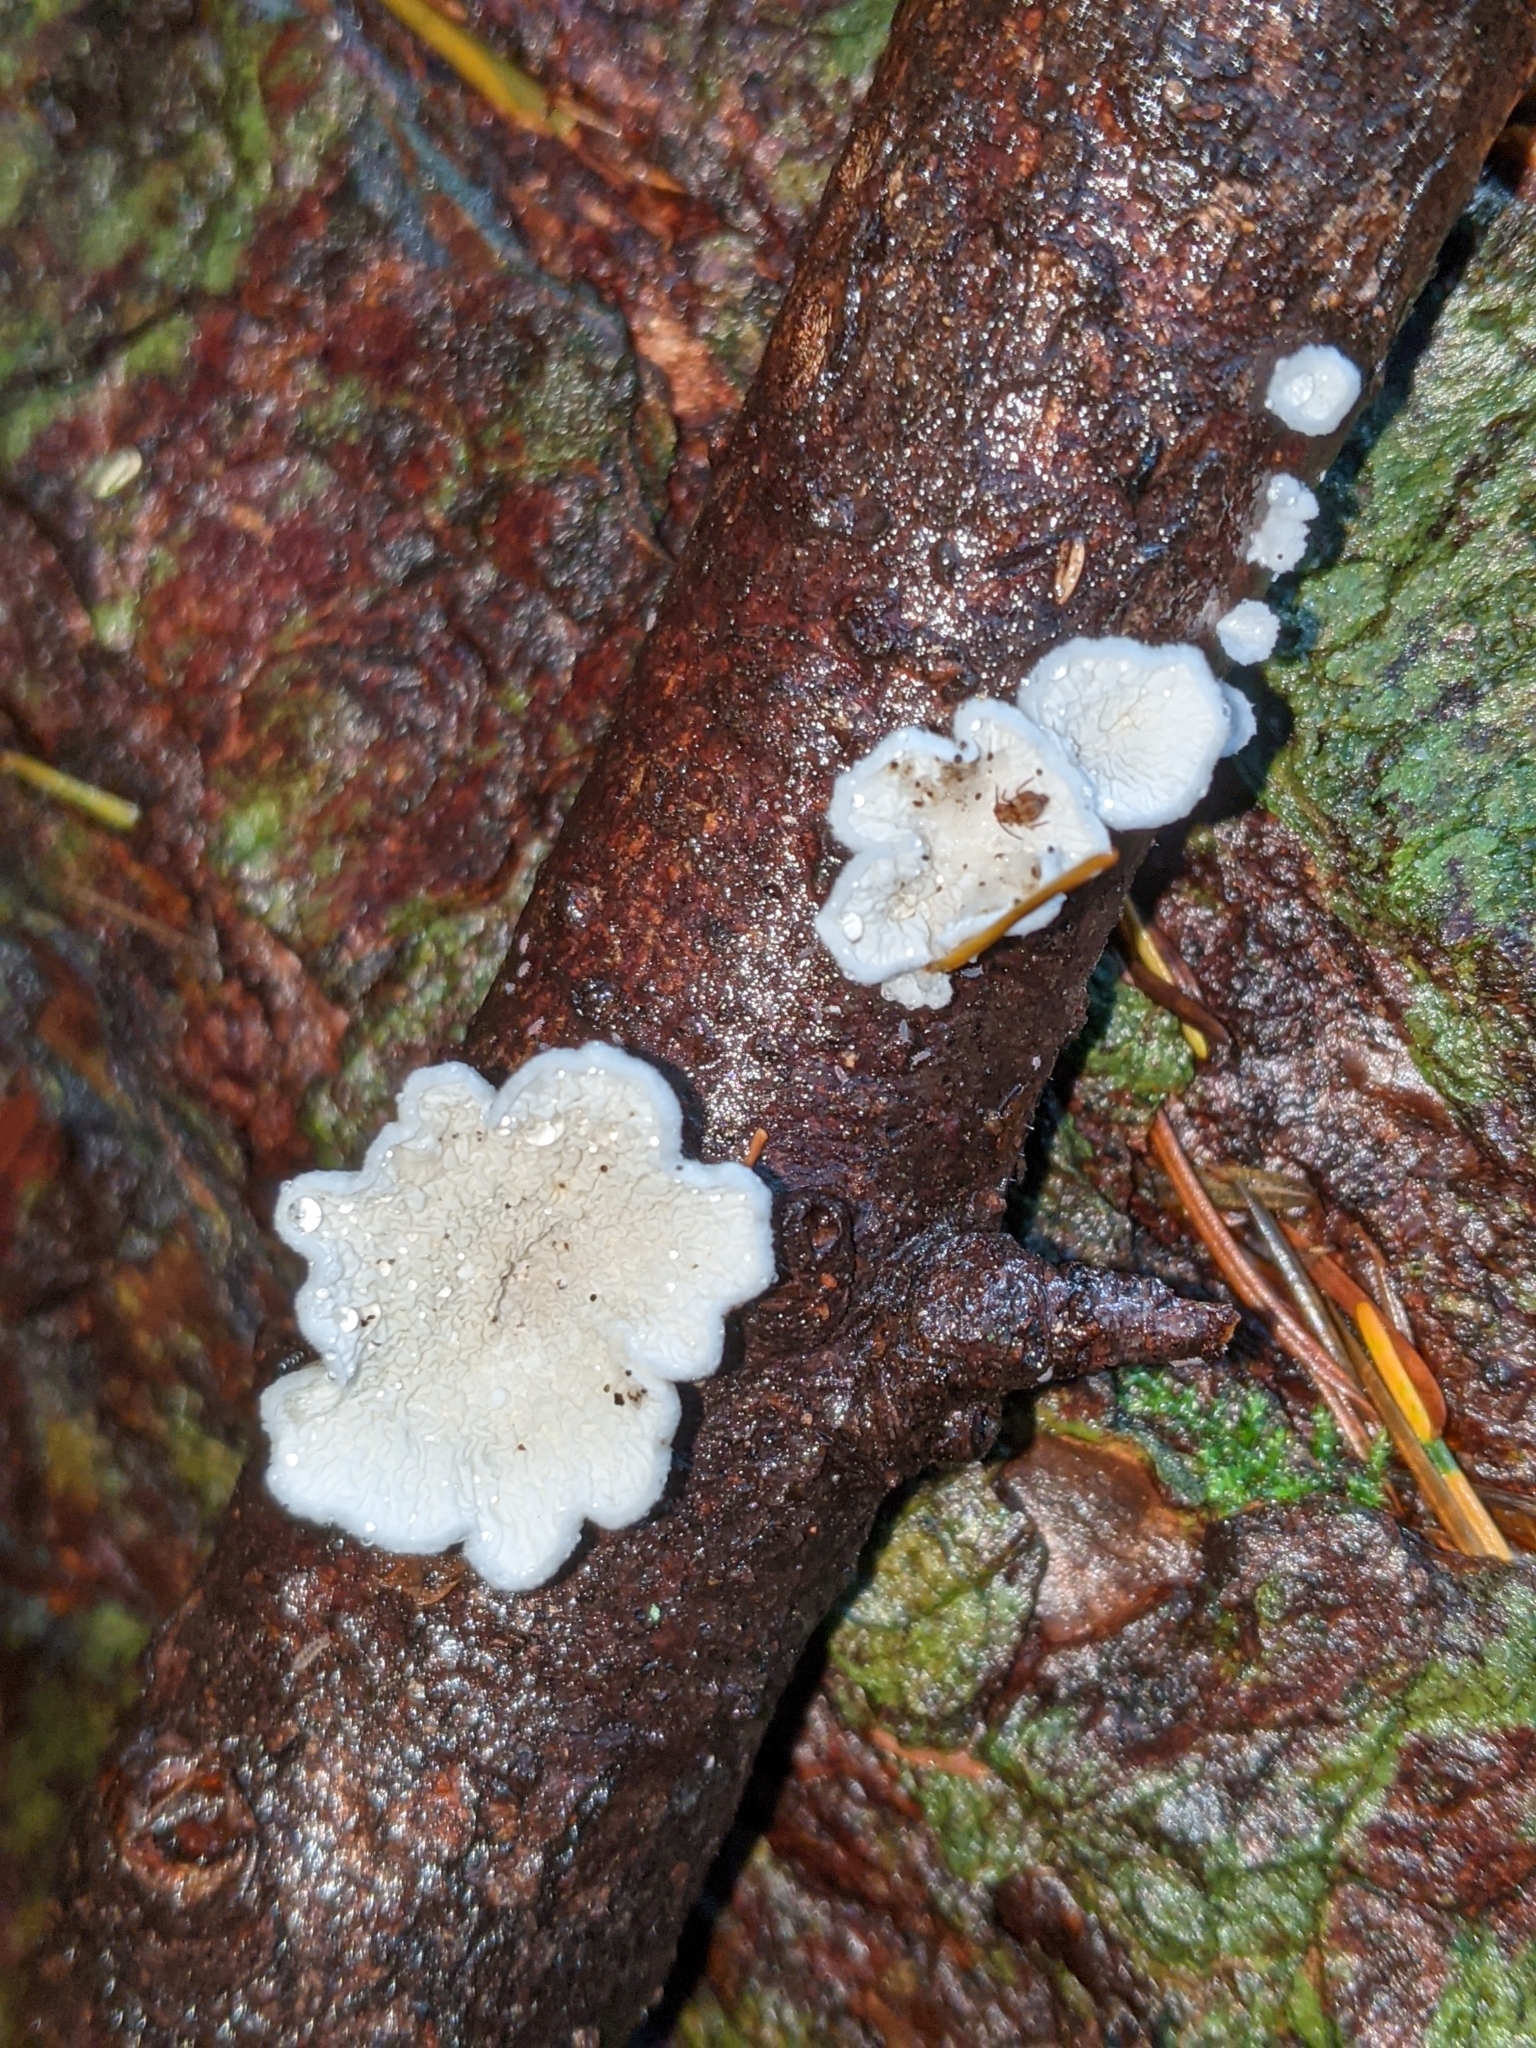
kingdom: Fungi
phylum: Basidiomycota
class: Agaricomycetes
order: Amylocorticiales
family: Amylocorticiaceae
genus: Plicaturopsis
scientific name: Plicaturopsis crispa
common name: Crimped gill
